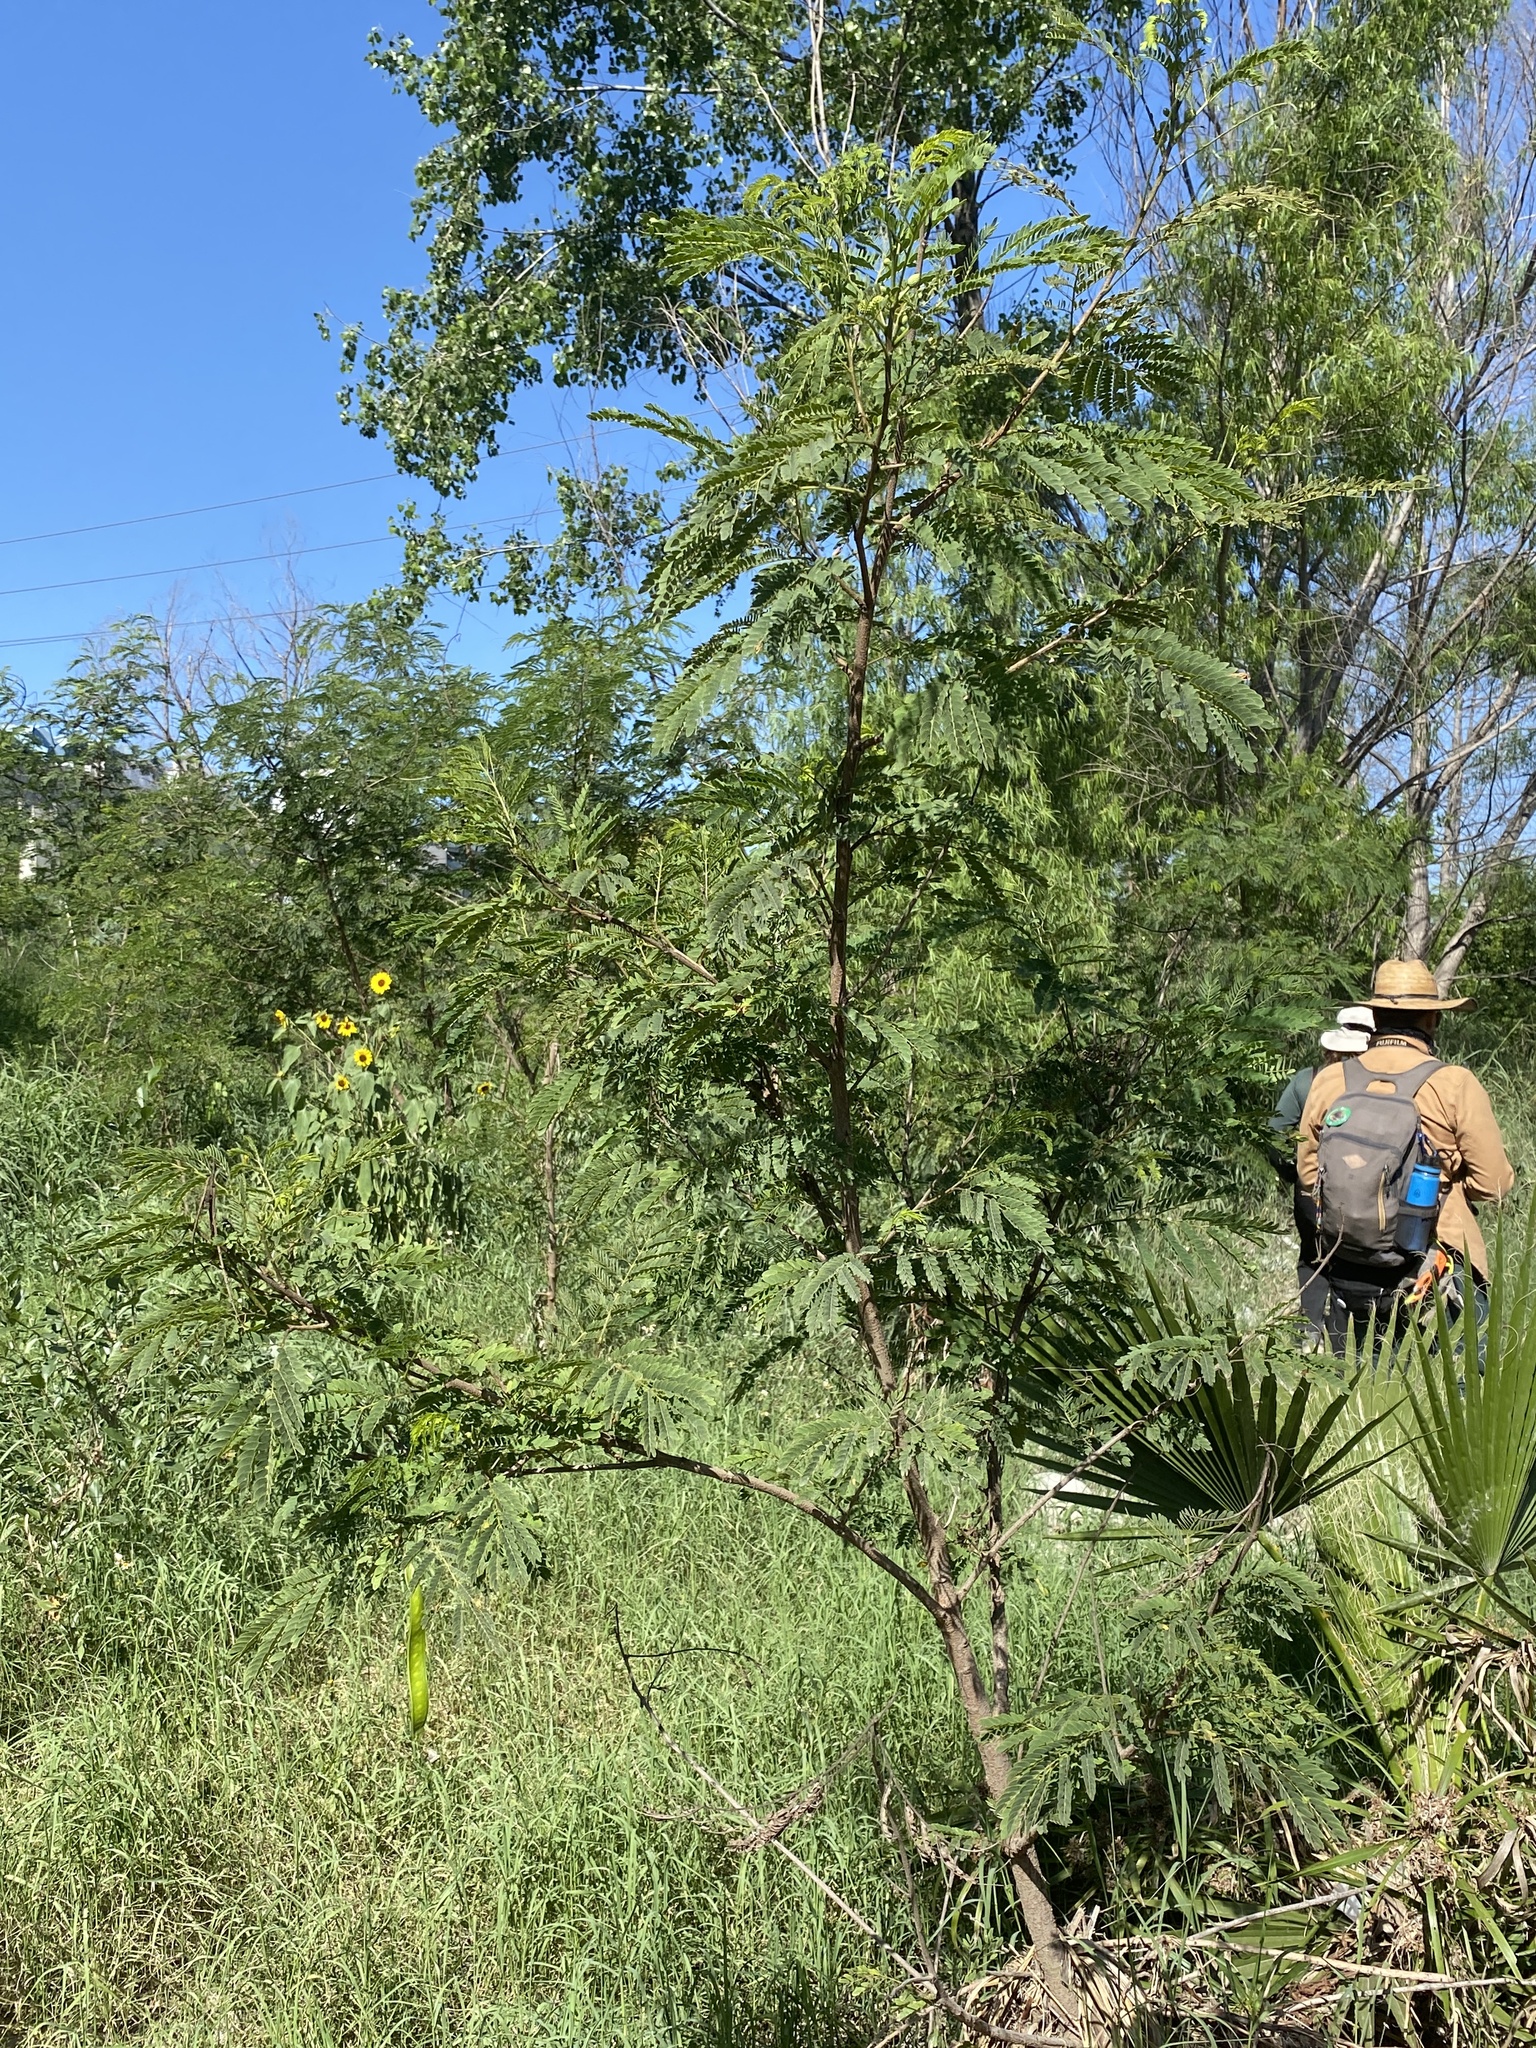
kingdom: Plantae
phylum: Tracheophyta
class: Magnoliopsida
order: Fabales
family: Fabaceae
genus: Leucaena
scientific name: Leucaena leucocephala
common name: White leadtree
